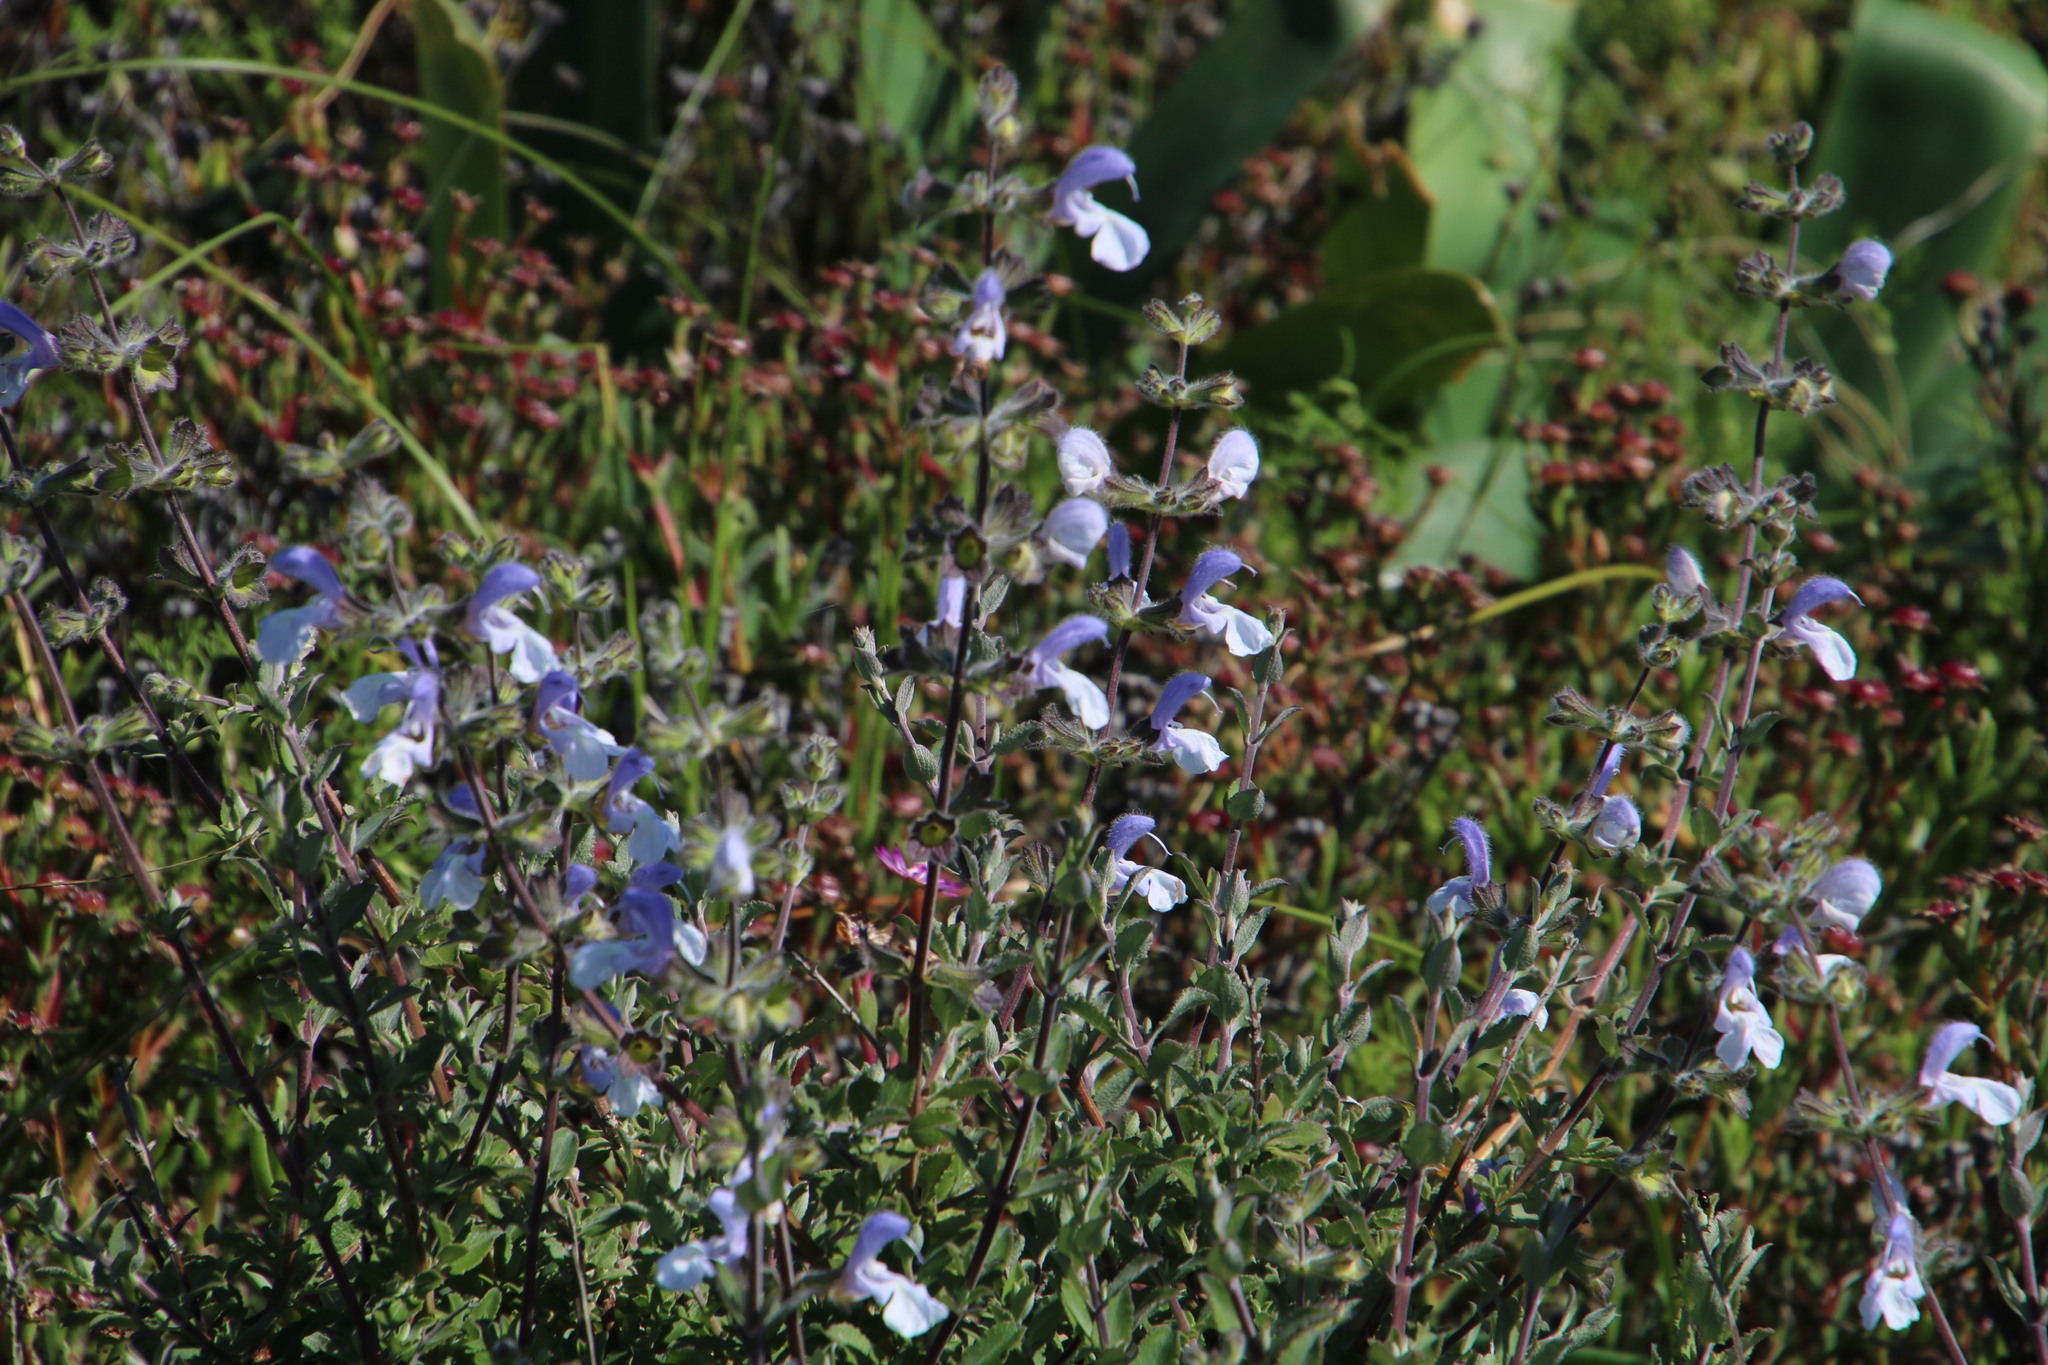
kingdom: Plantae
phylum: Tracheophyta
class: Magnoliopsida
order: Lamiales
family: Lamiaceae
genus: Salvia
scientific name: Salvia africana
